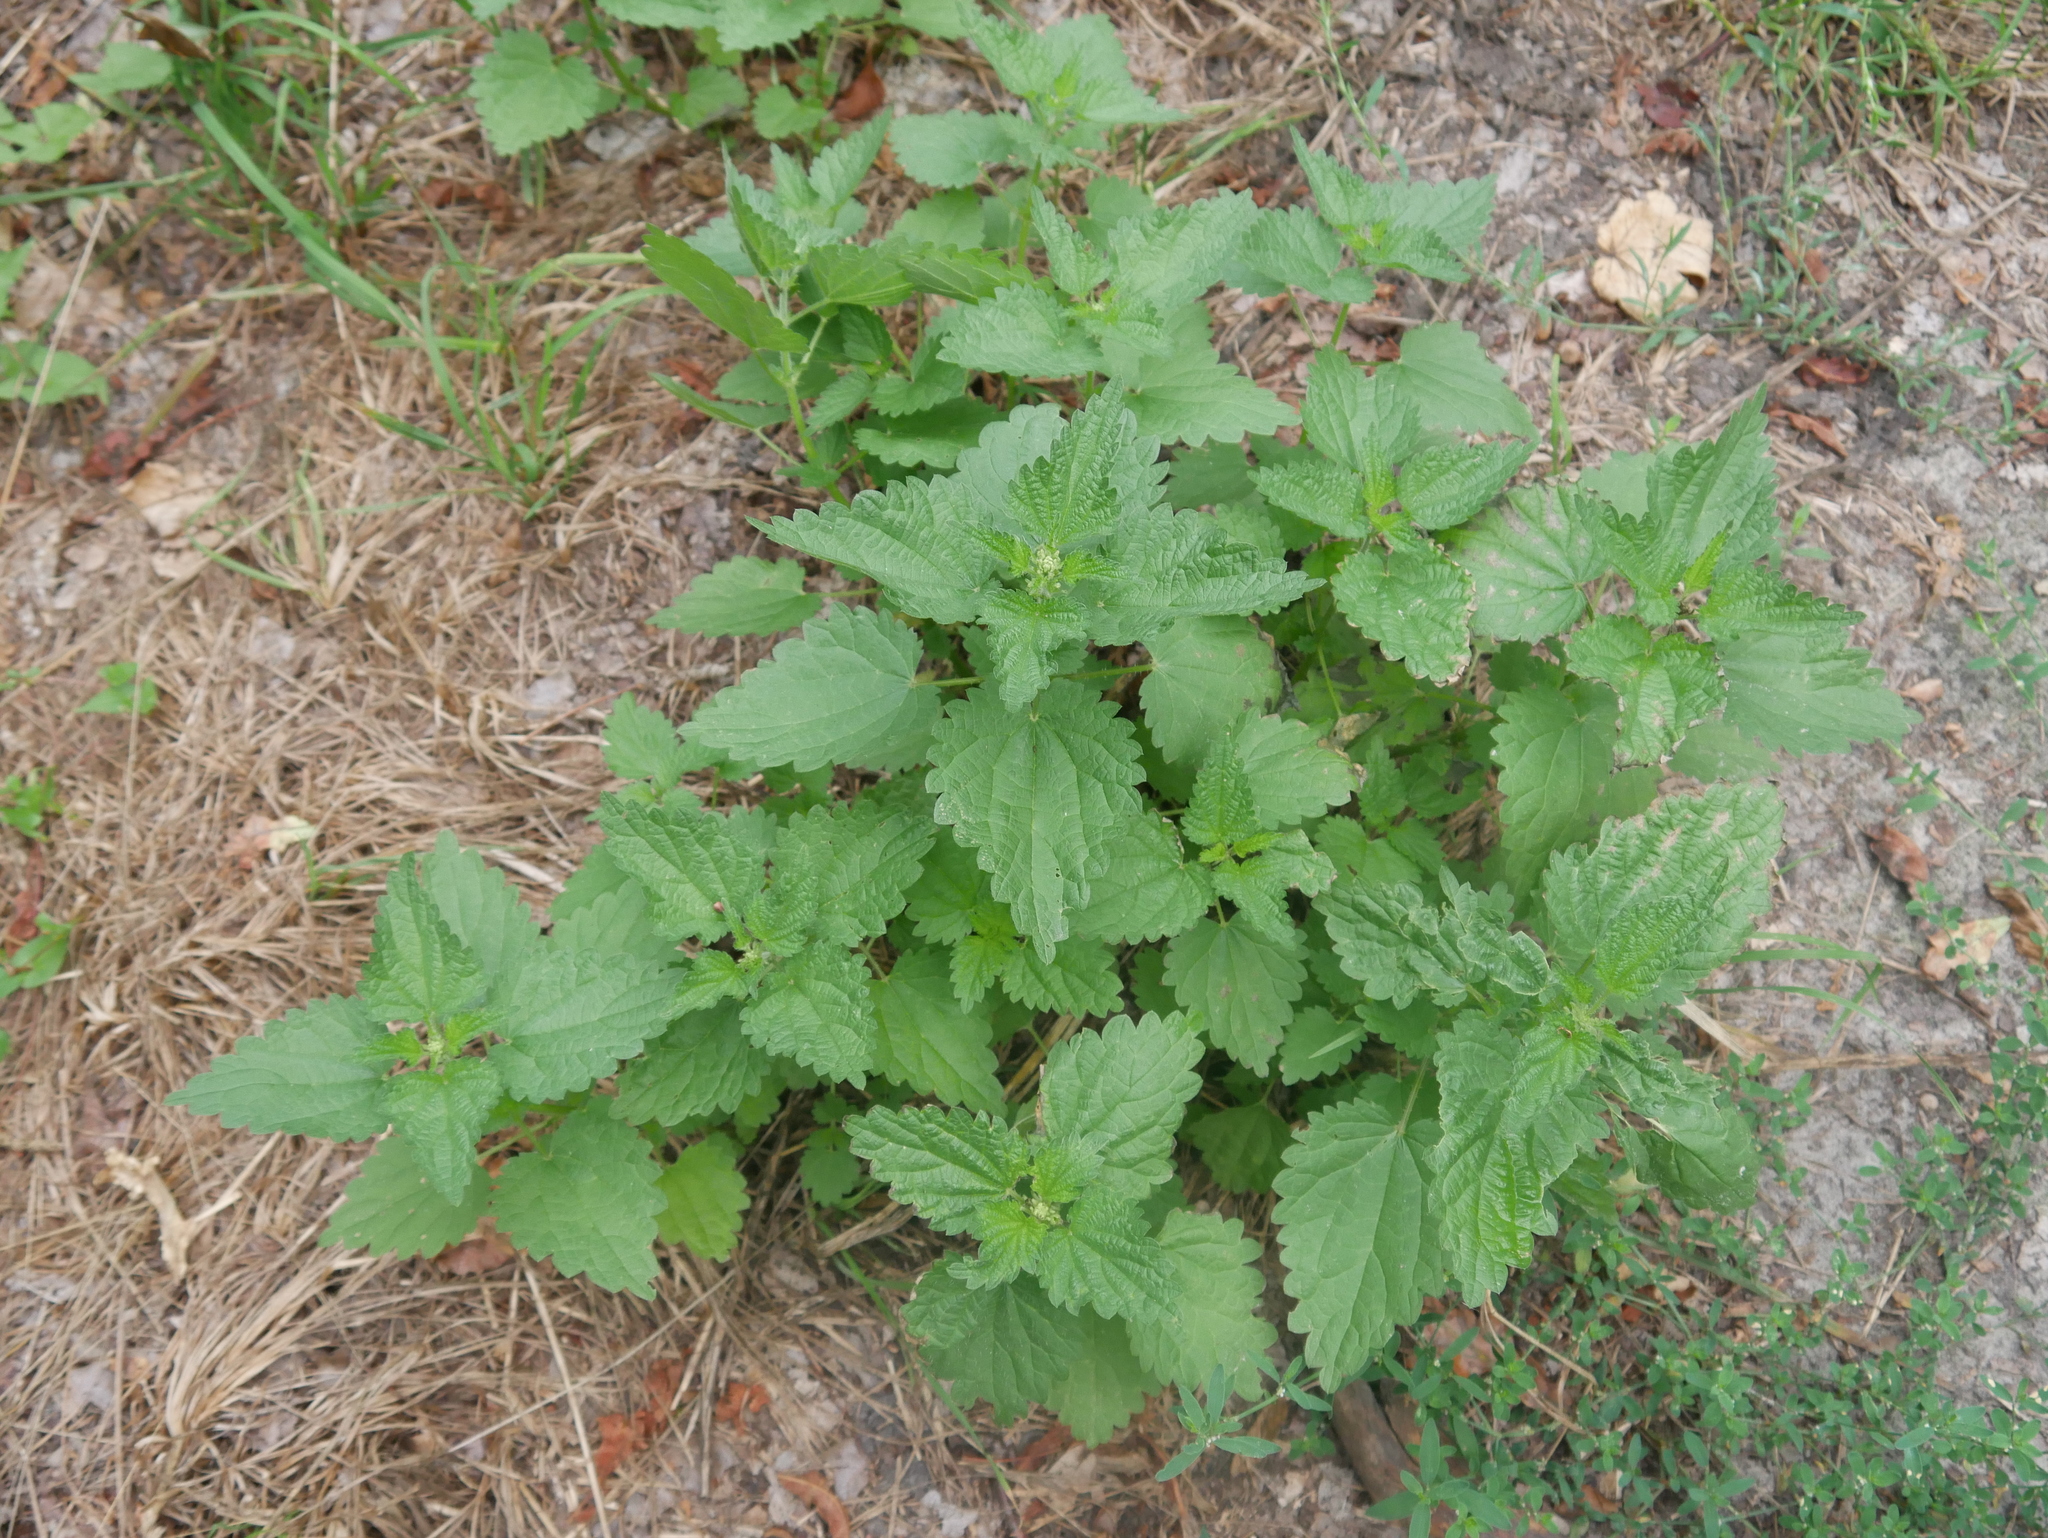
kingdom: Plantae
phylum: Tracheophyta
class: Magnoliopsida
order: Rosales
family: Urticaceae
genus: Urtica
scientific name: Urtica dioica
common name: Common nettle
